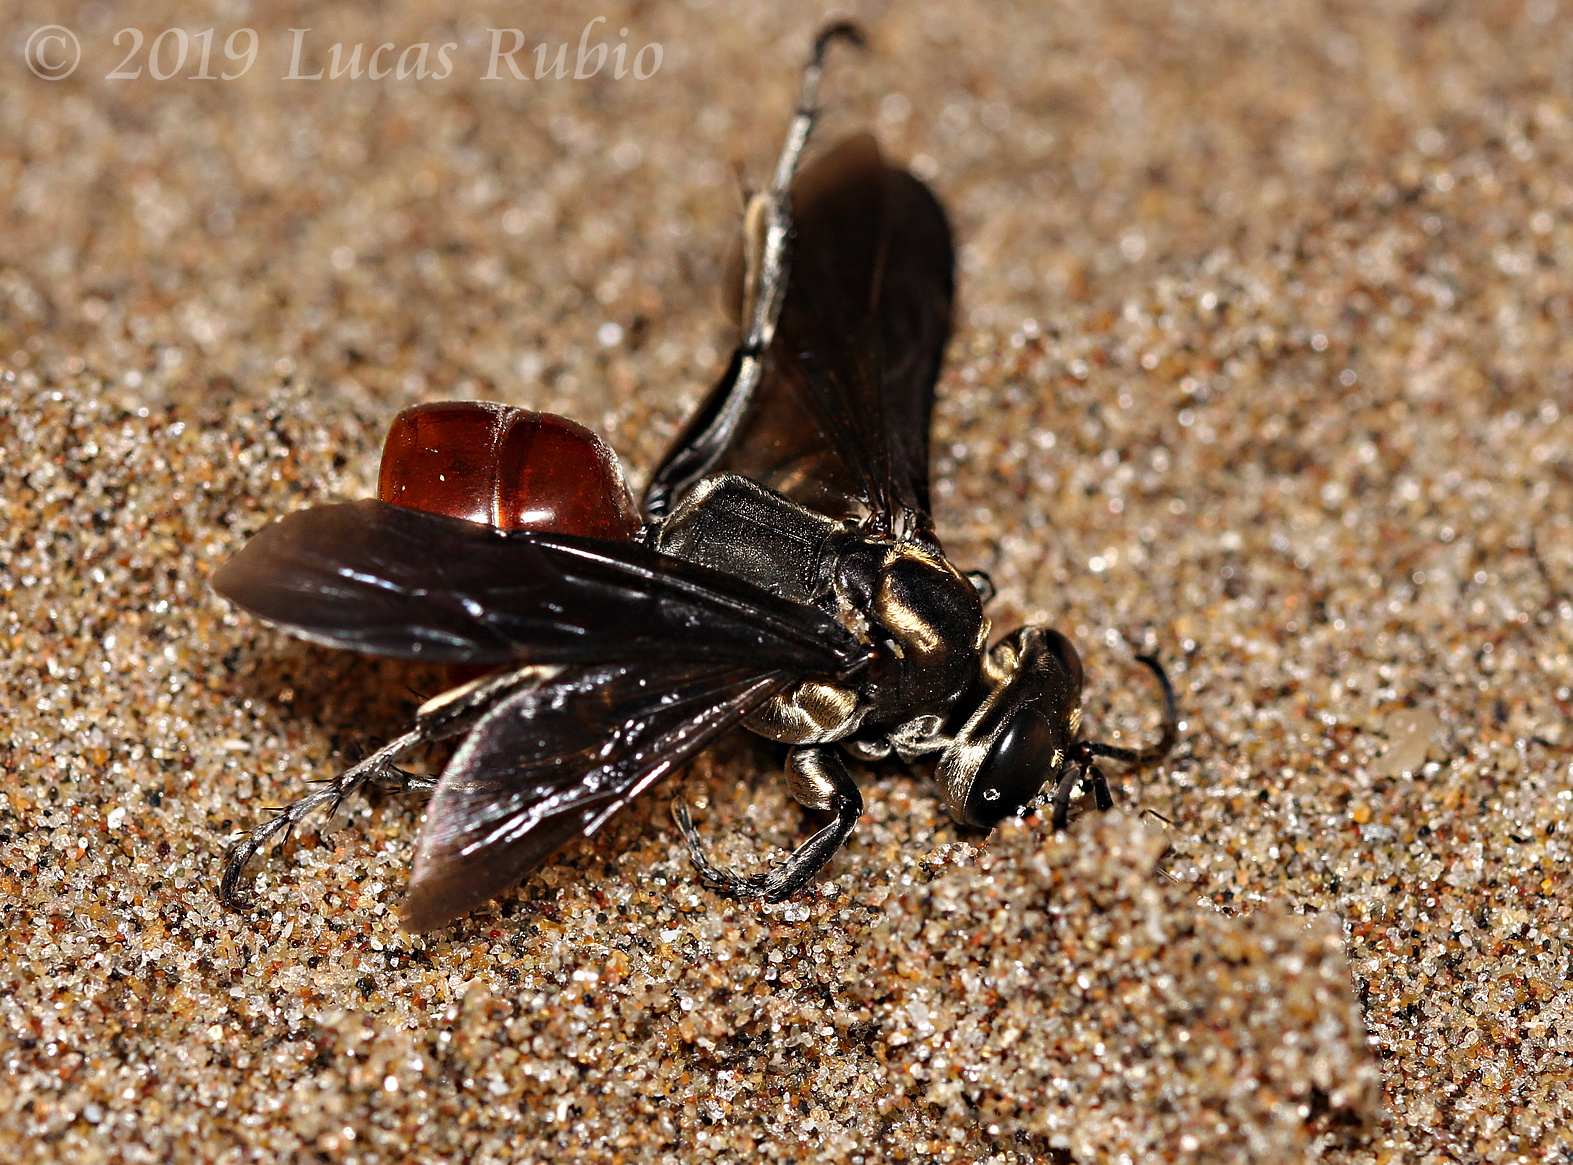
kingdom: Animalia
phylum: Arthropoda
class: Insecta
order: Hymenoptera
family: Crabronidae
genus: Larra
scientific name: Larra bicolor
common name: Wasp
